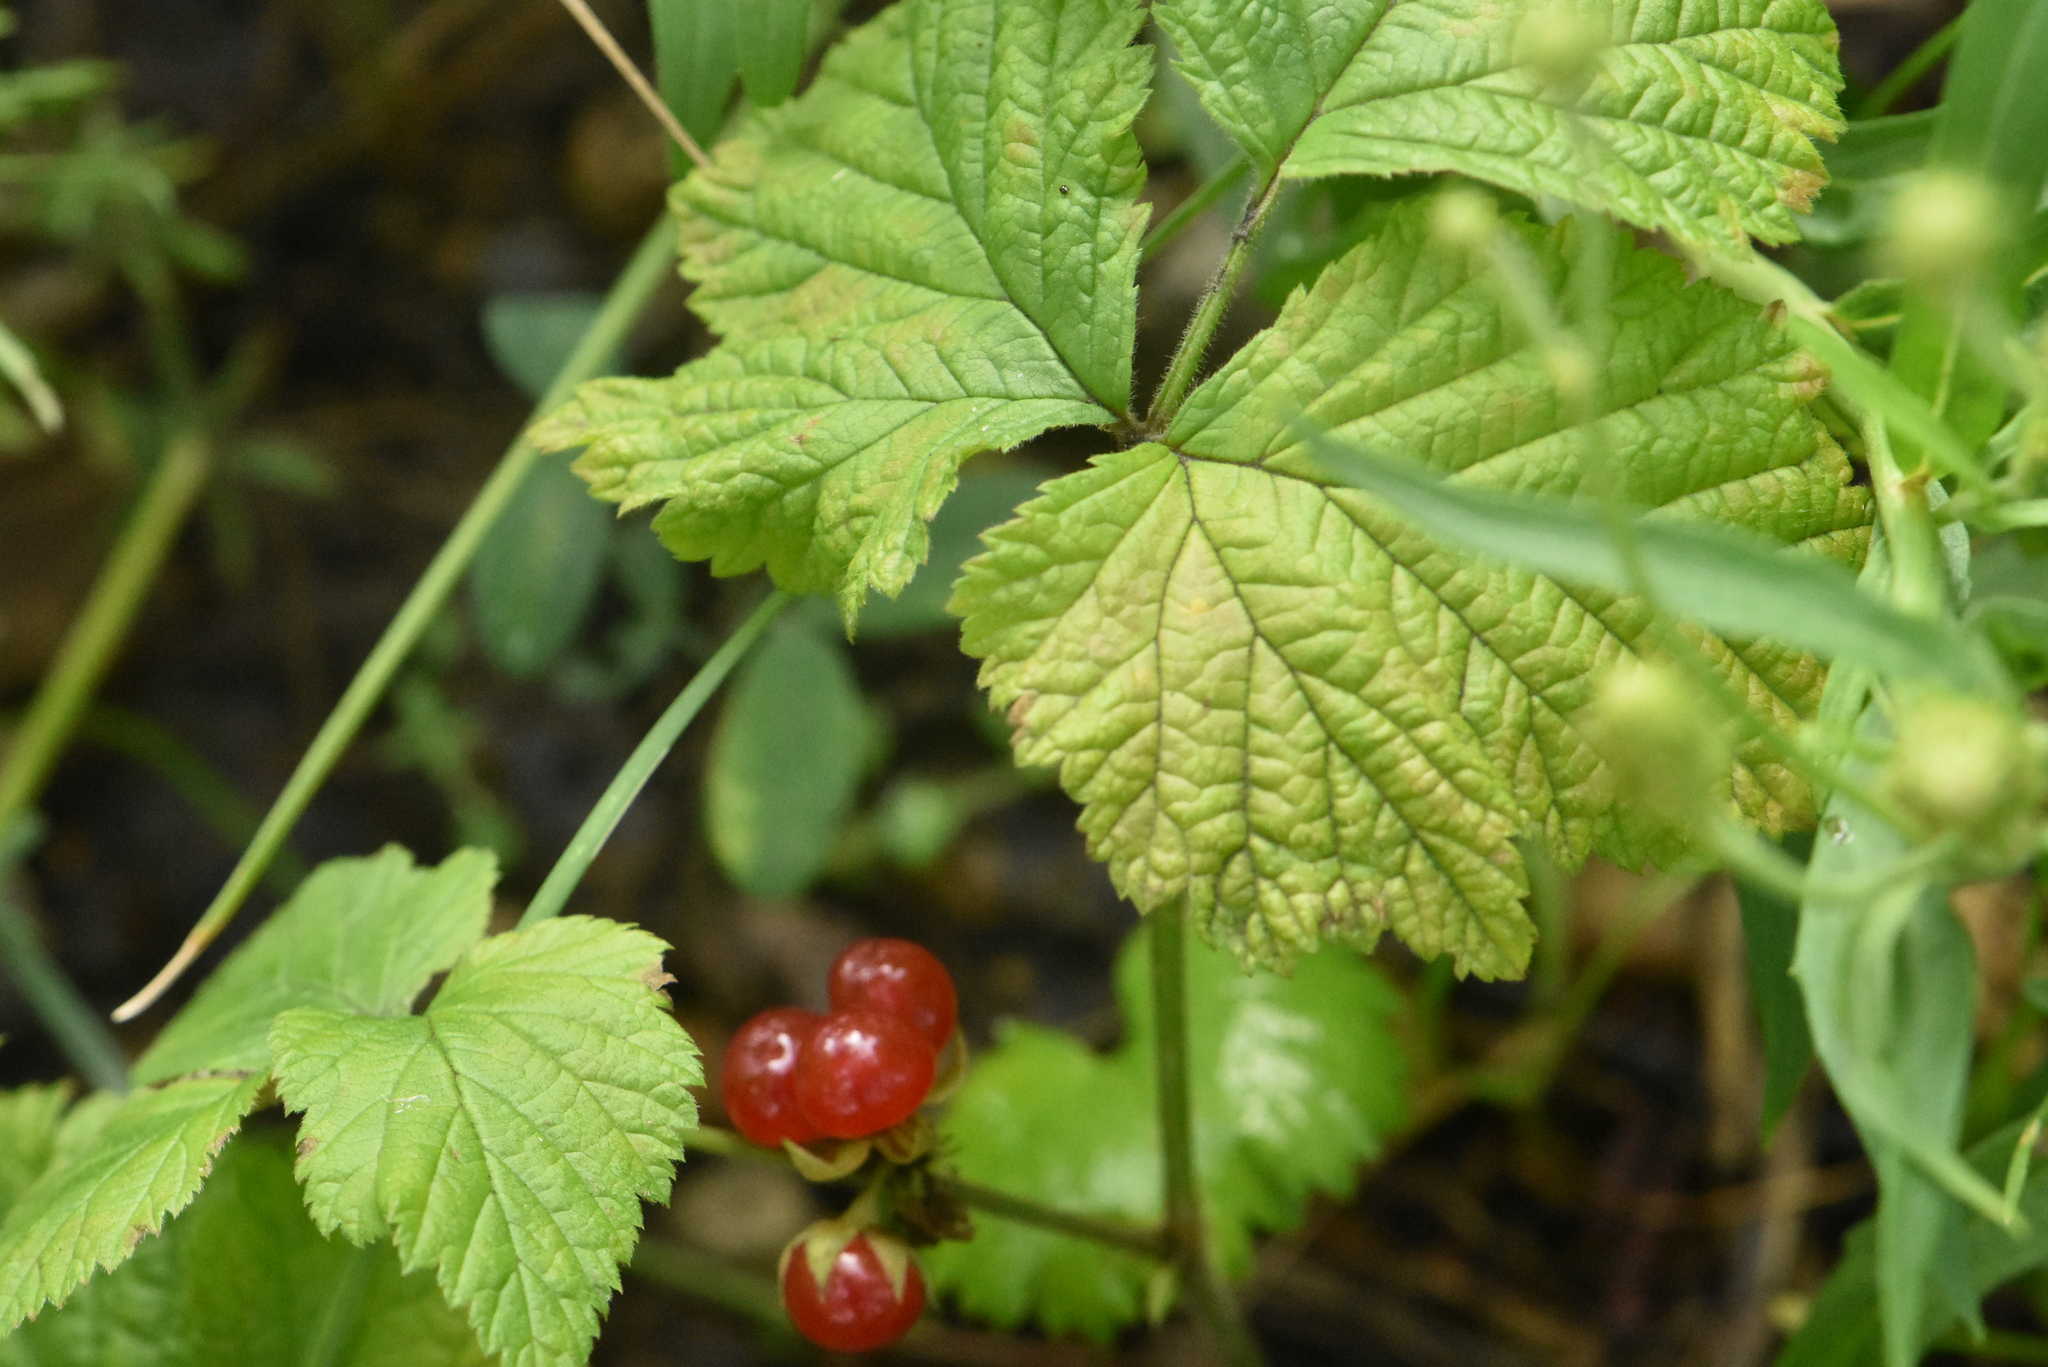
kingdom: Plantae
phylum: Tracheophyta
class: Magnoliopsida
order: Rosales
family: Rosaceae
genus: Rubus
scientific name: Rubus saxatilis
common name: Stone bramble
